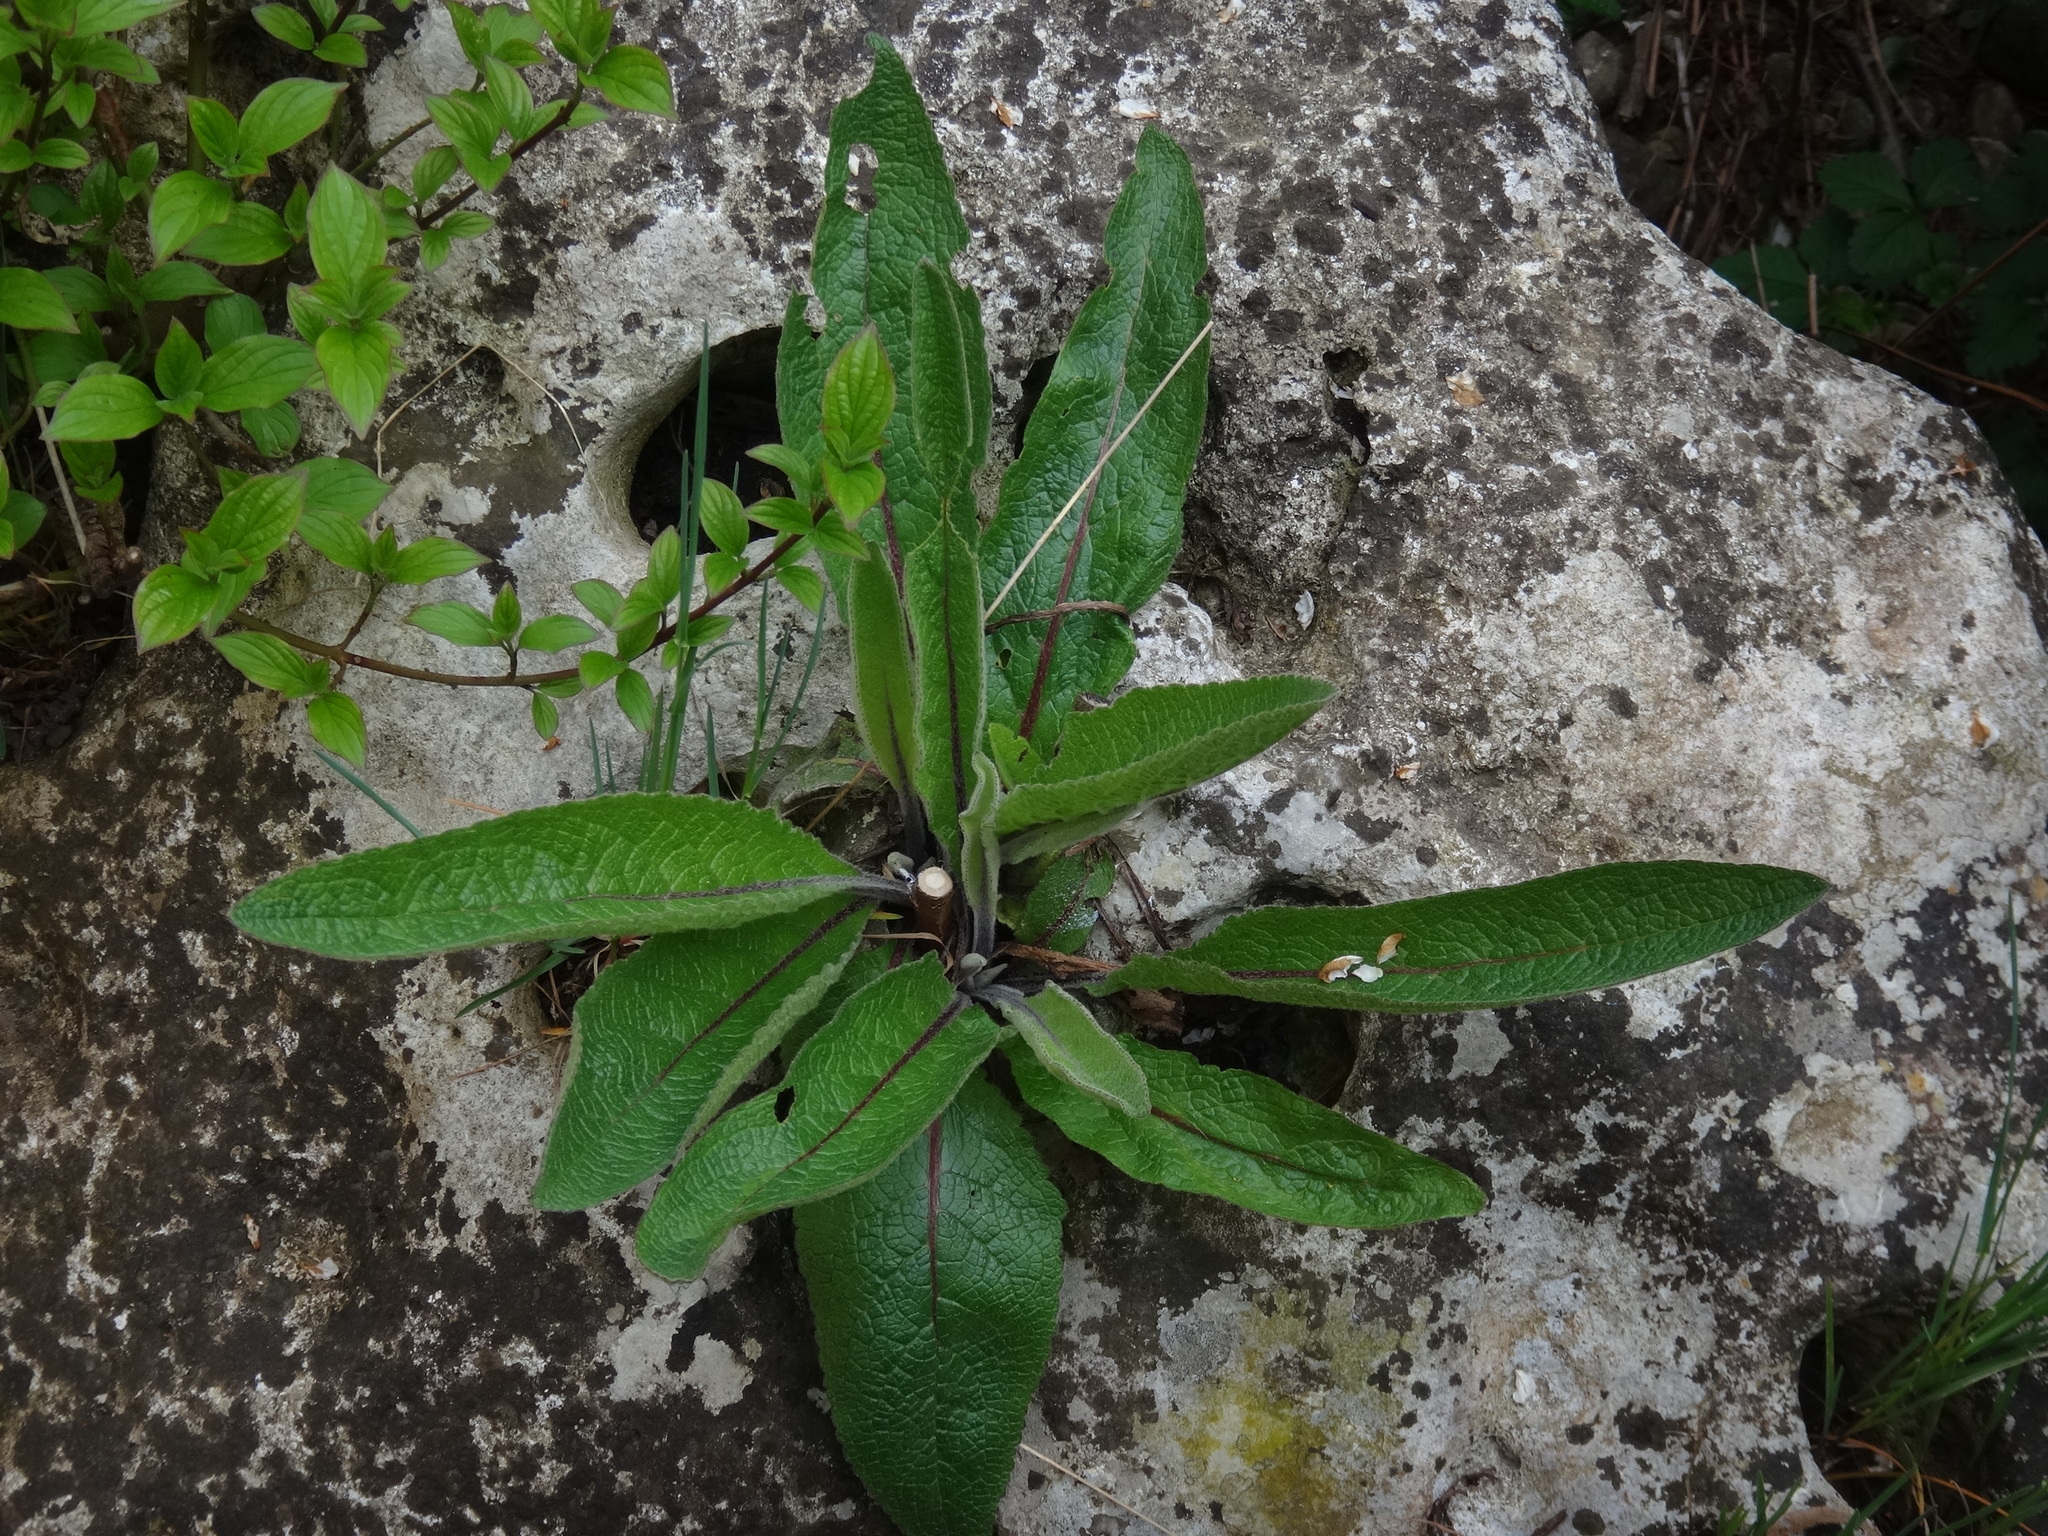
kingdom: Plantae
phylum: Tracheophyta
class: Magnoliopsida
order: Lamiales
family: Scrophulariaceae
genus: Verbascum
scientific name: Verbascum chaixii
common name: Nettle-leaved mullein
